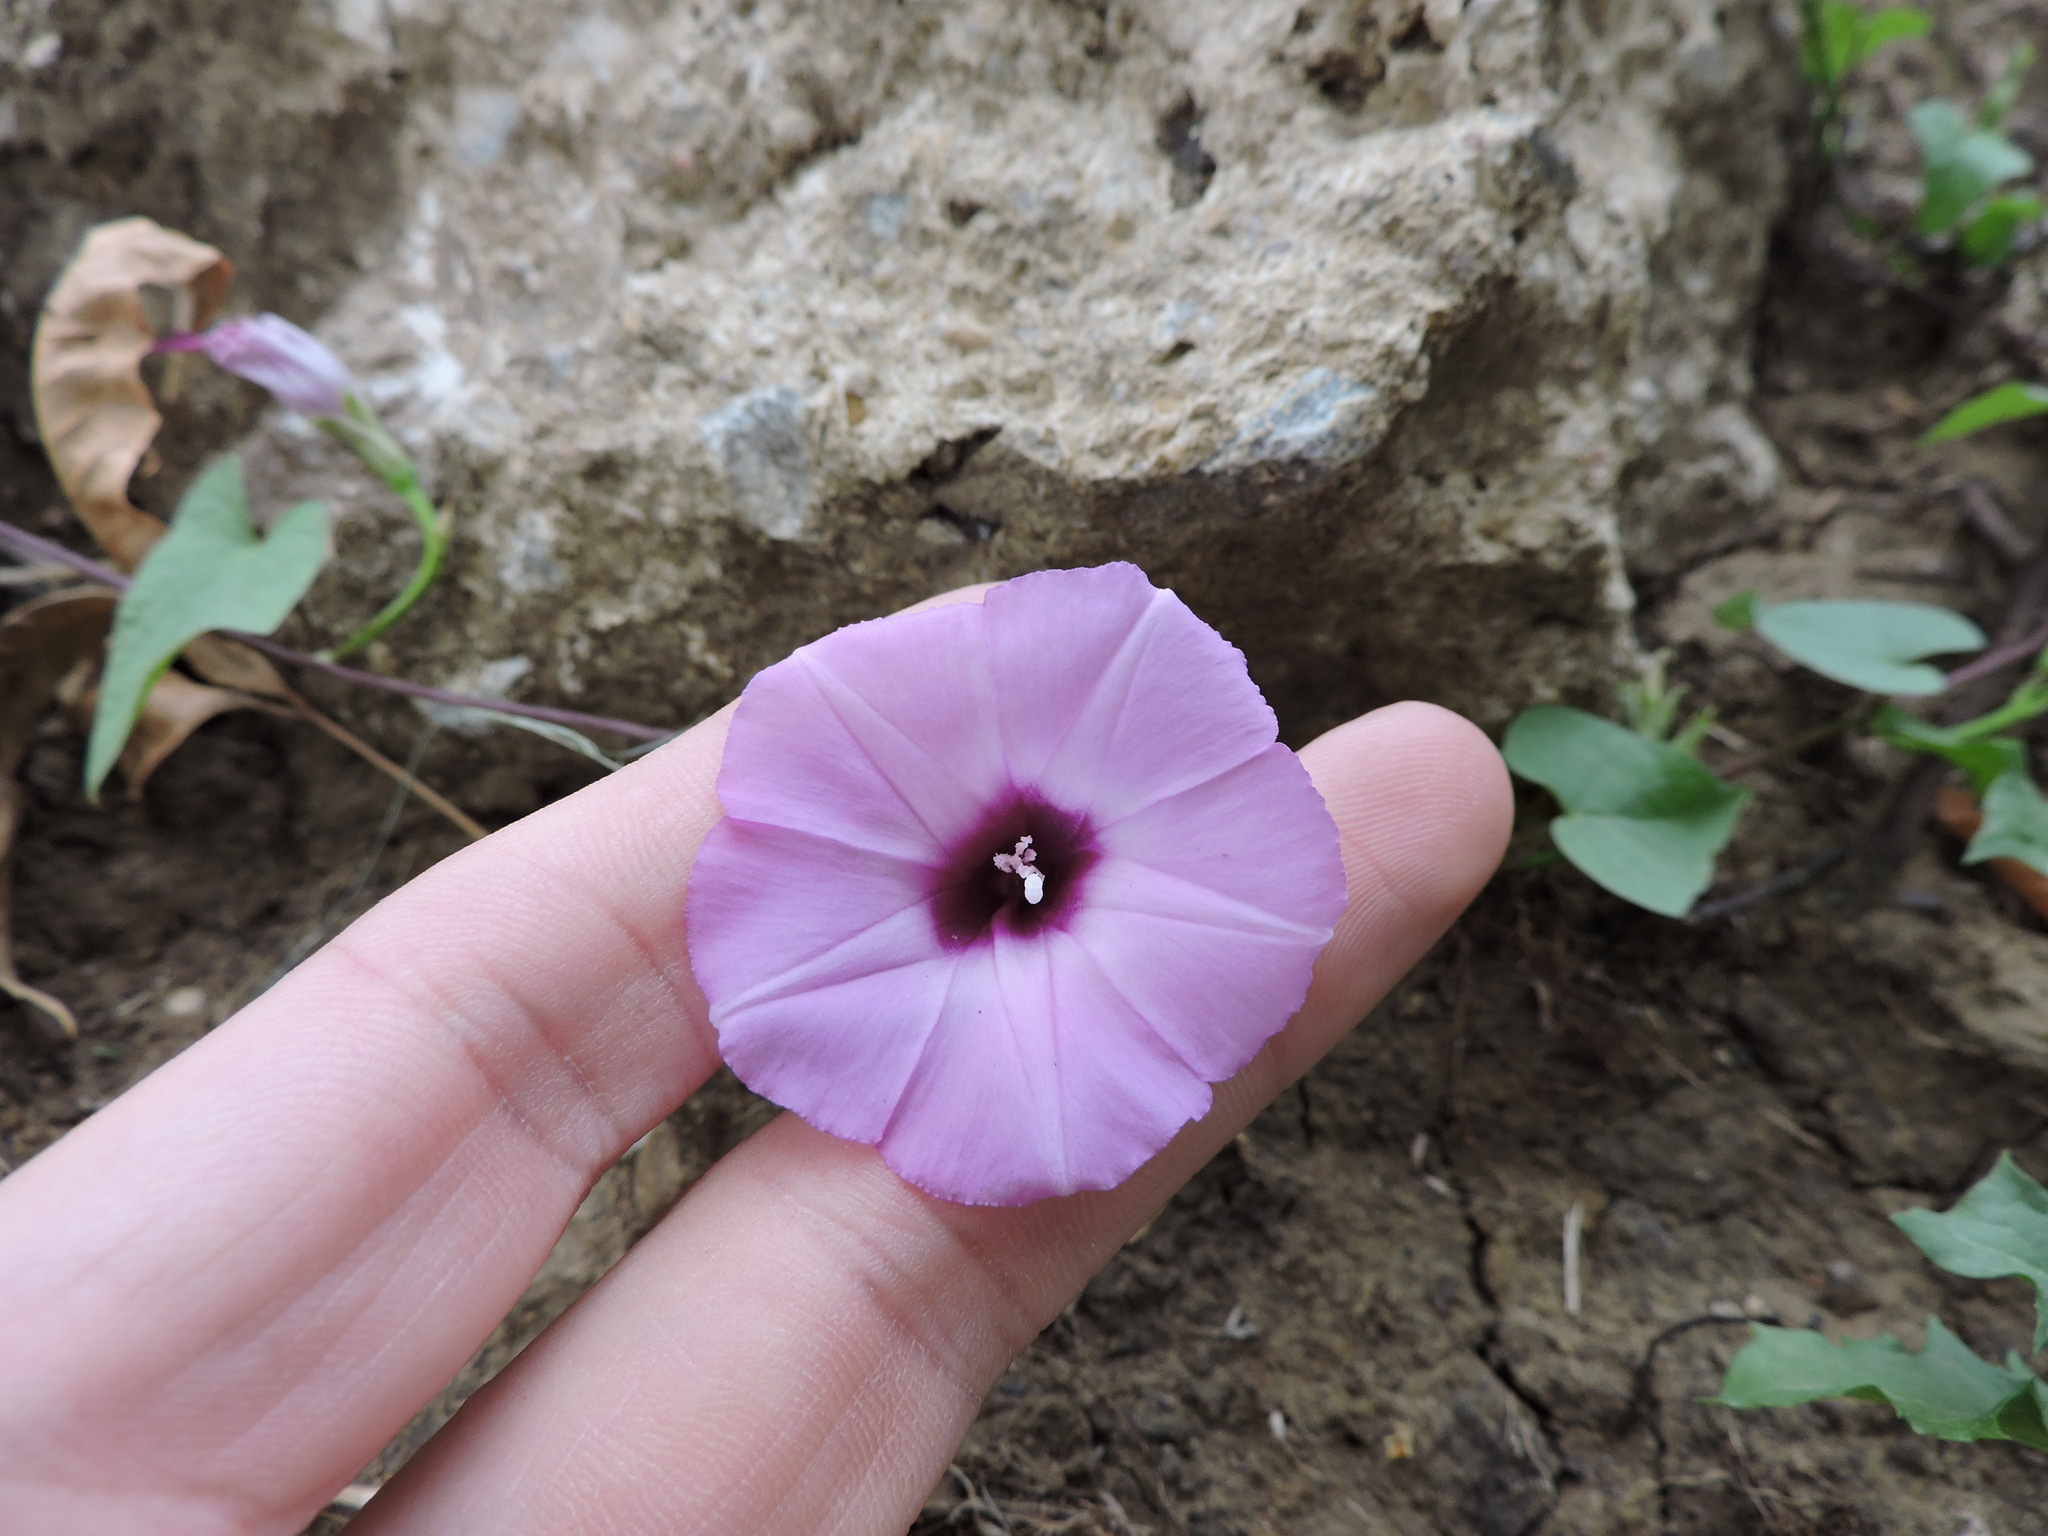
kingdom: Plantae
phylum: Tracheophyta
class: Magnoliopsida
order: Solanales
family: Convolvulaceae
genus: Ipomoea
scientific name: Ipomoea cordatotriloba
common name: Cotton morning glory
